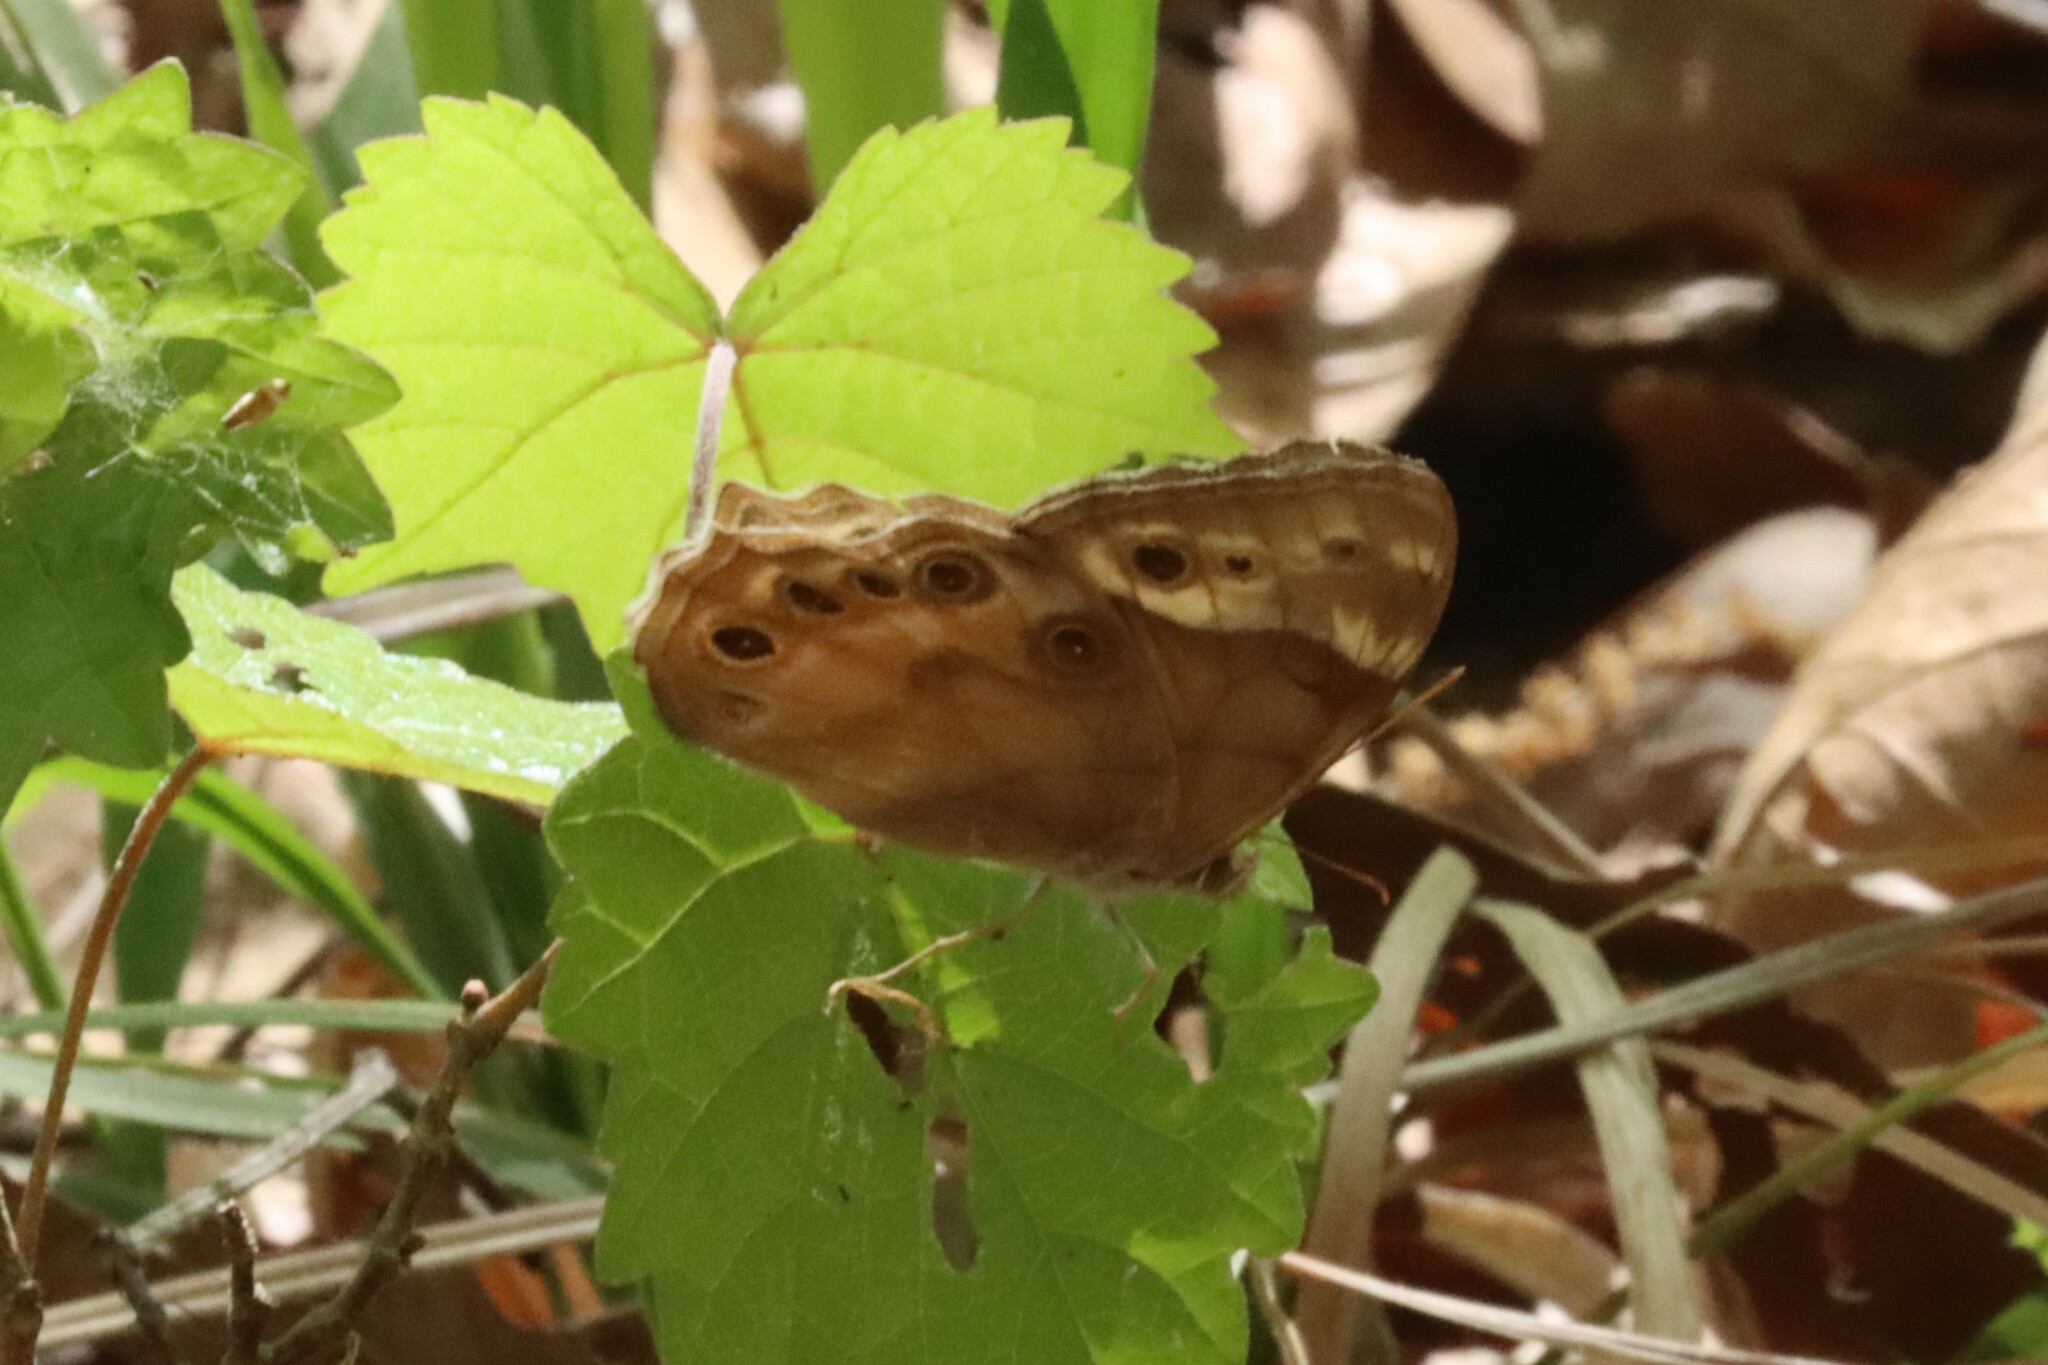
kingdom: Animalia
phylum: Arthropoda
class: Insecta
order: Lepidoptera
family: Nymphalidae
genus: Enodia
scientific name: Enodia portlandia
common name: Southern pearly-eye
